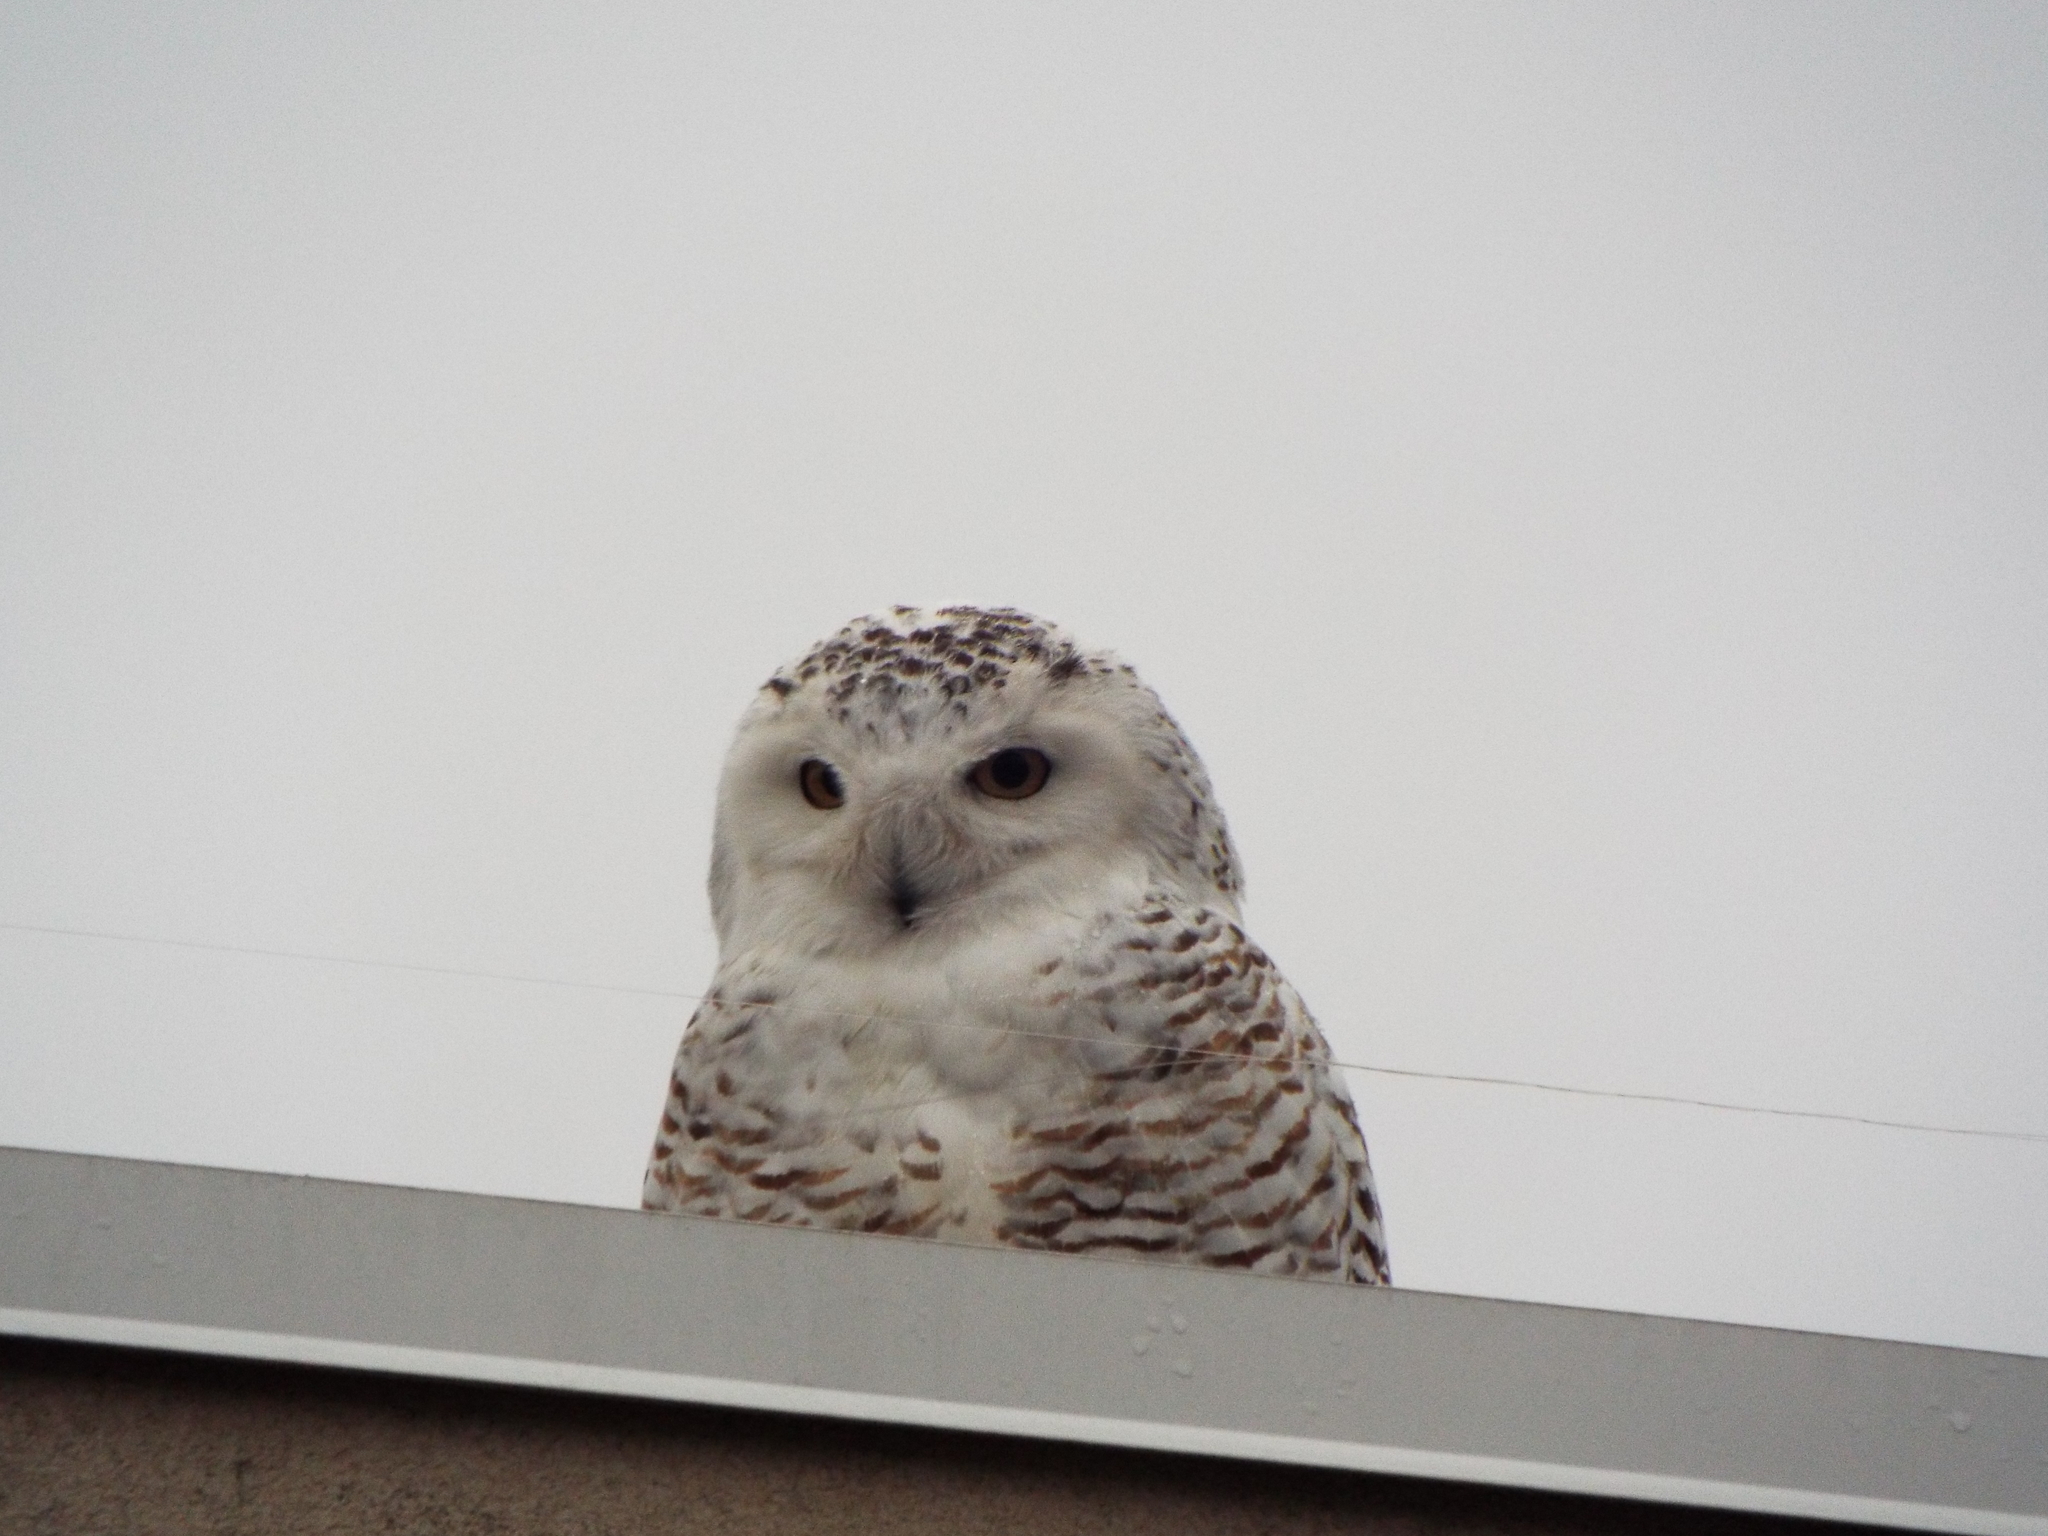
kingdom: Animalia
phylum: Chordata
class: Aves
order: Strigiformes
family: Strigidae
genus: Bubo
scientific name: Bubo scandiacus
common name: Snowy owl
